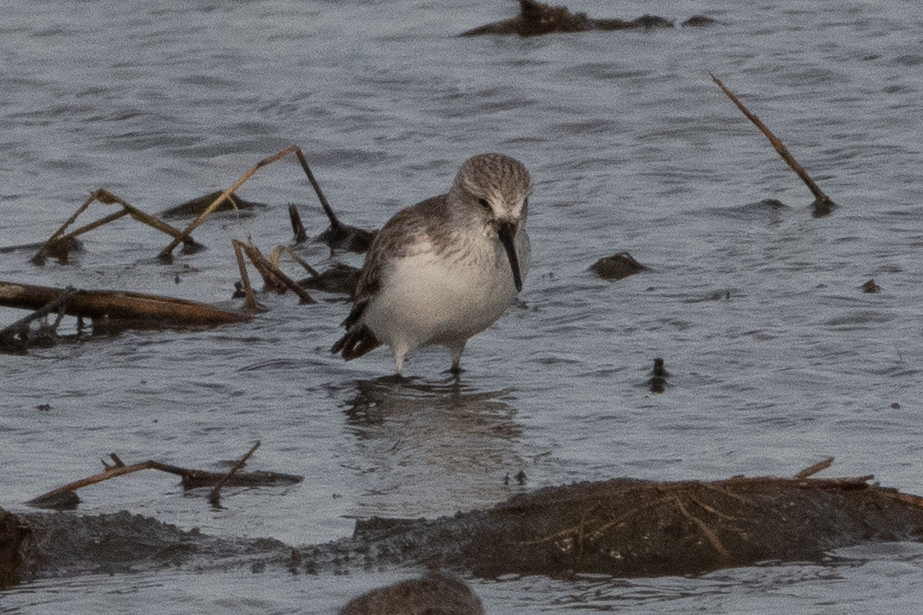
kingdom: Animalia
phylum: Chordata
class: Aves
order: Charadriiformes
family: Scolopacidae
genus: Calidris
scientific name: Calidris mauri
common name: Western sandpiper
